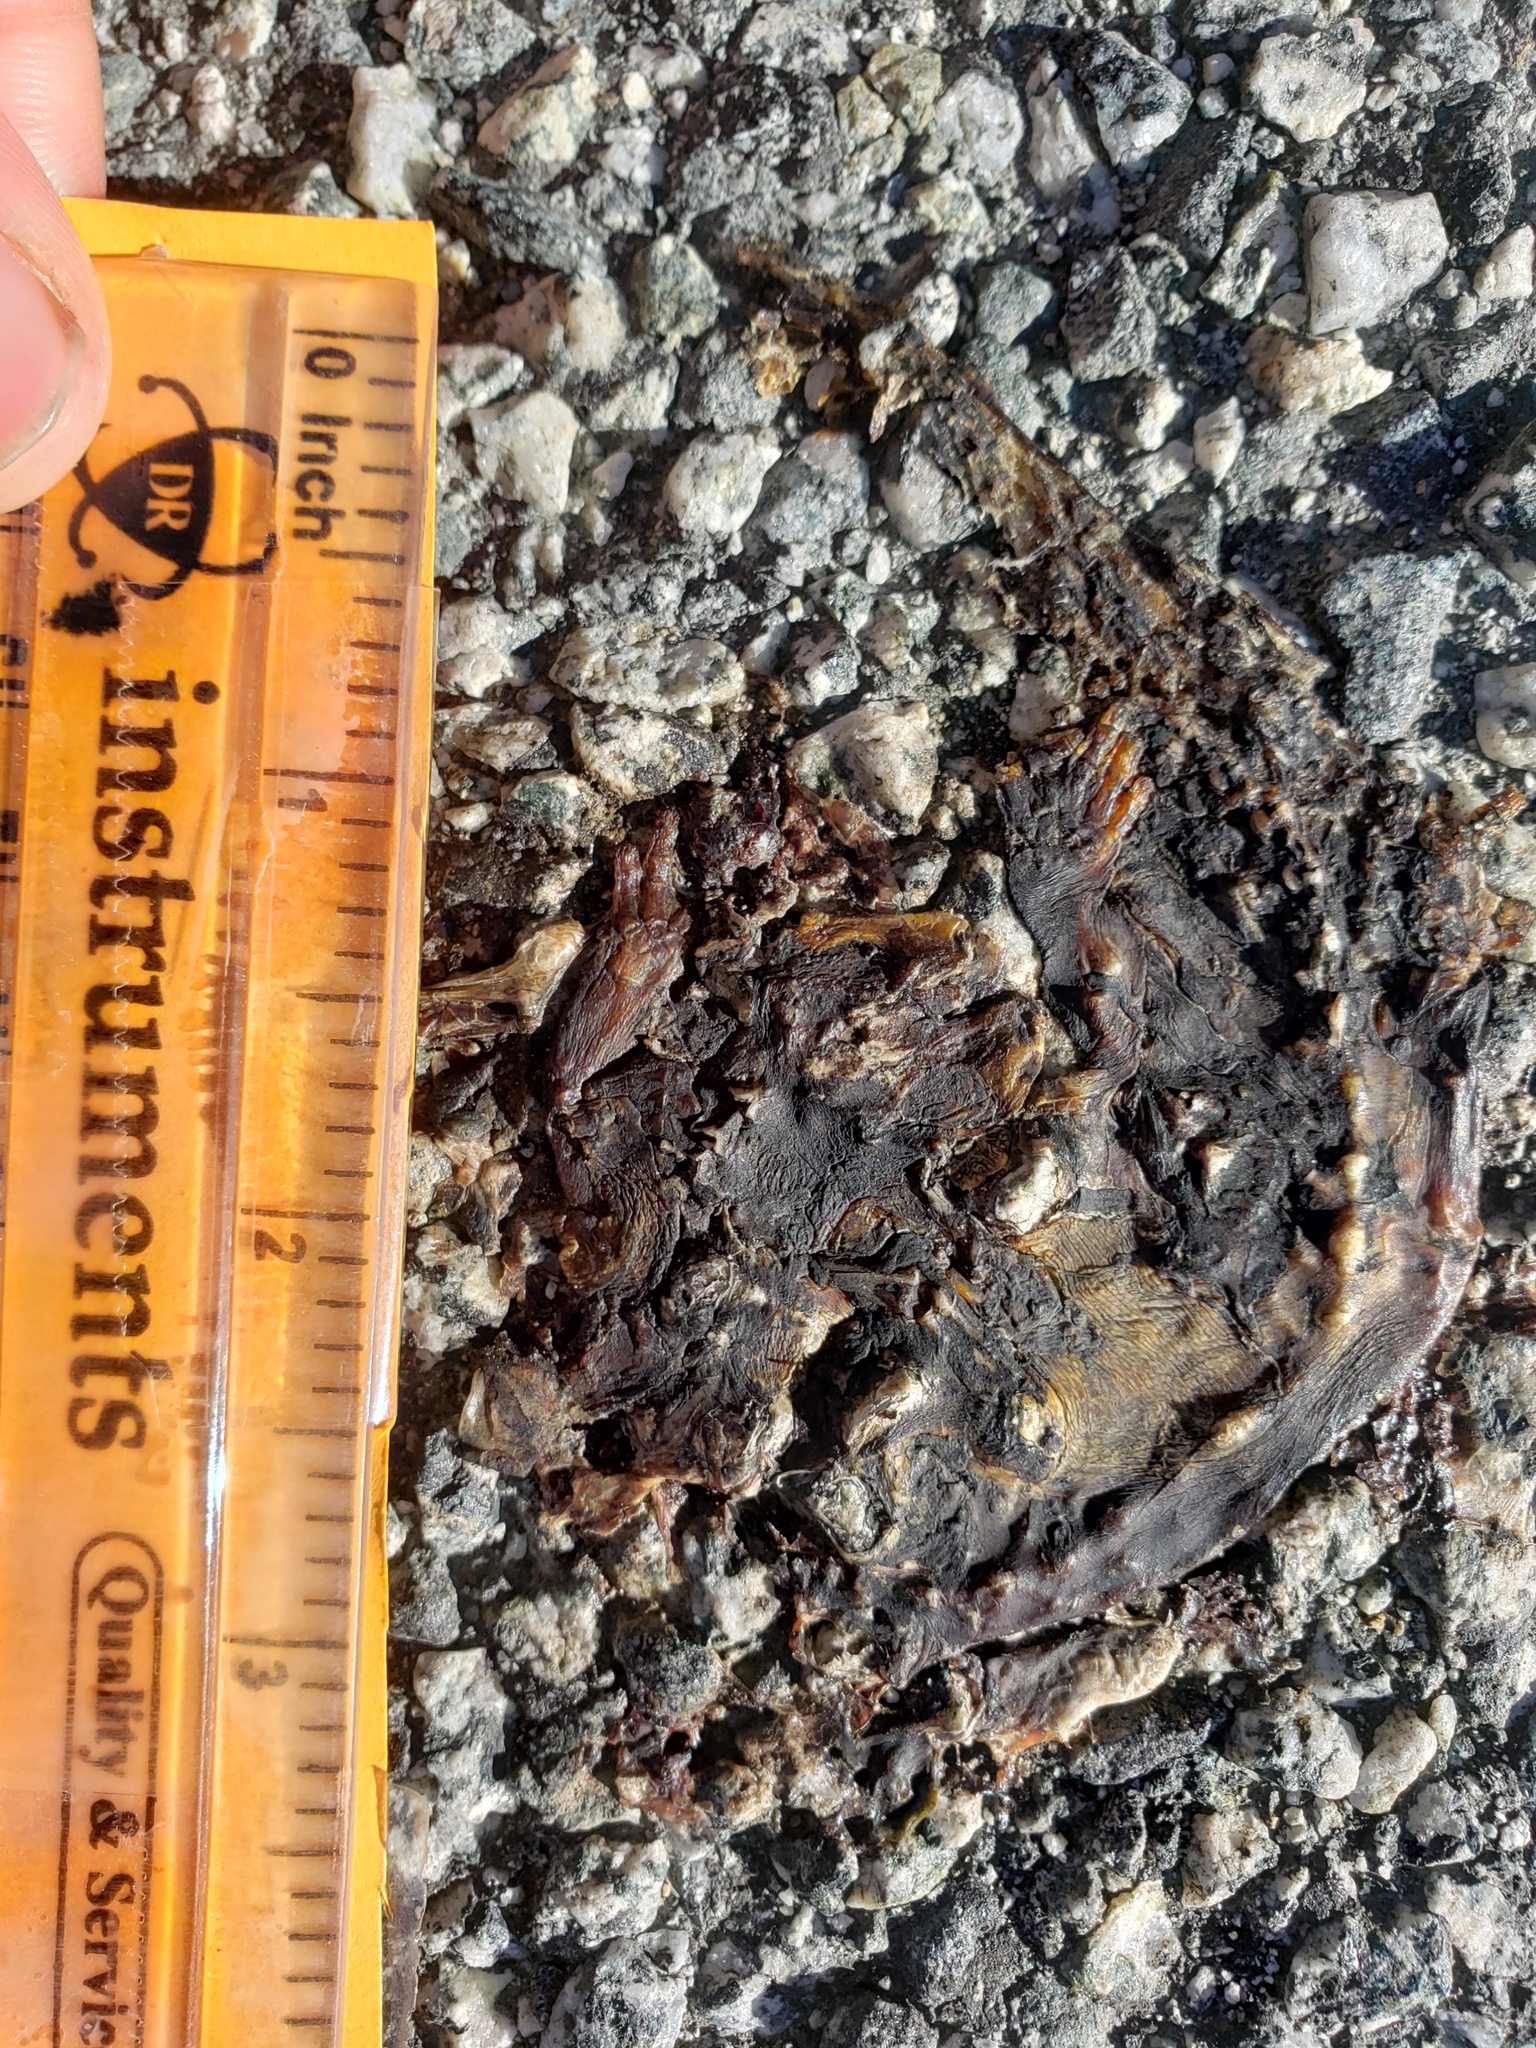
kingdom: Animalia
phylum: Chordata
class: Amphibia
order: Caudata
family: Salamandridae
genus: Taricha
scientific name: Taricha
